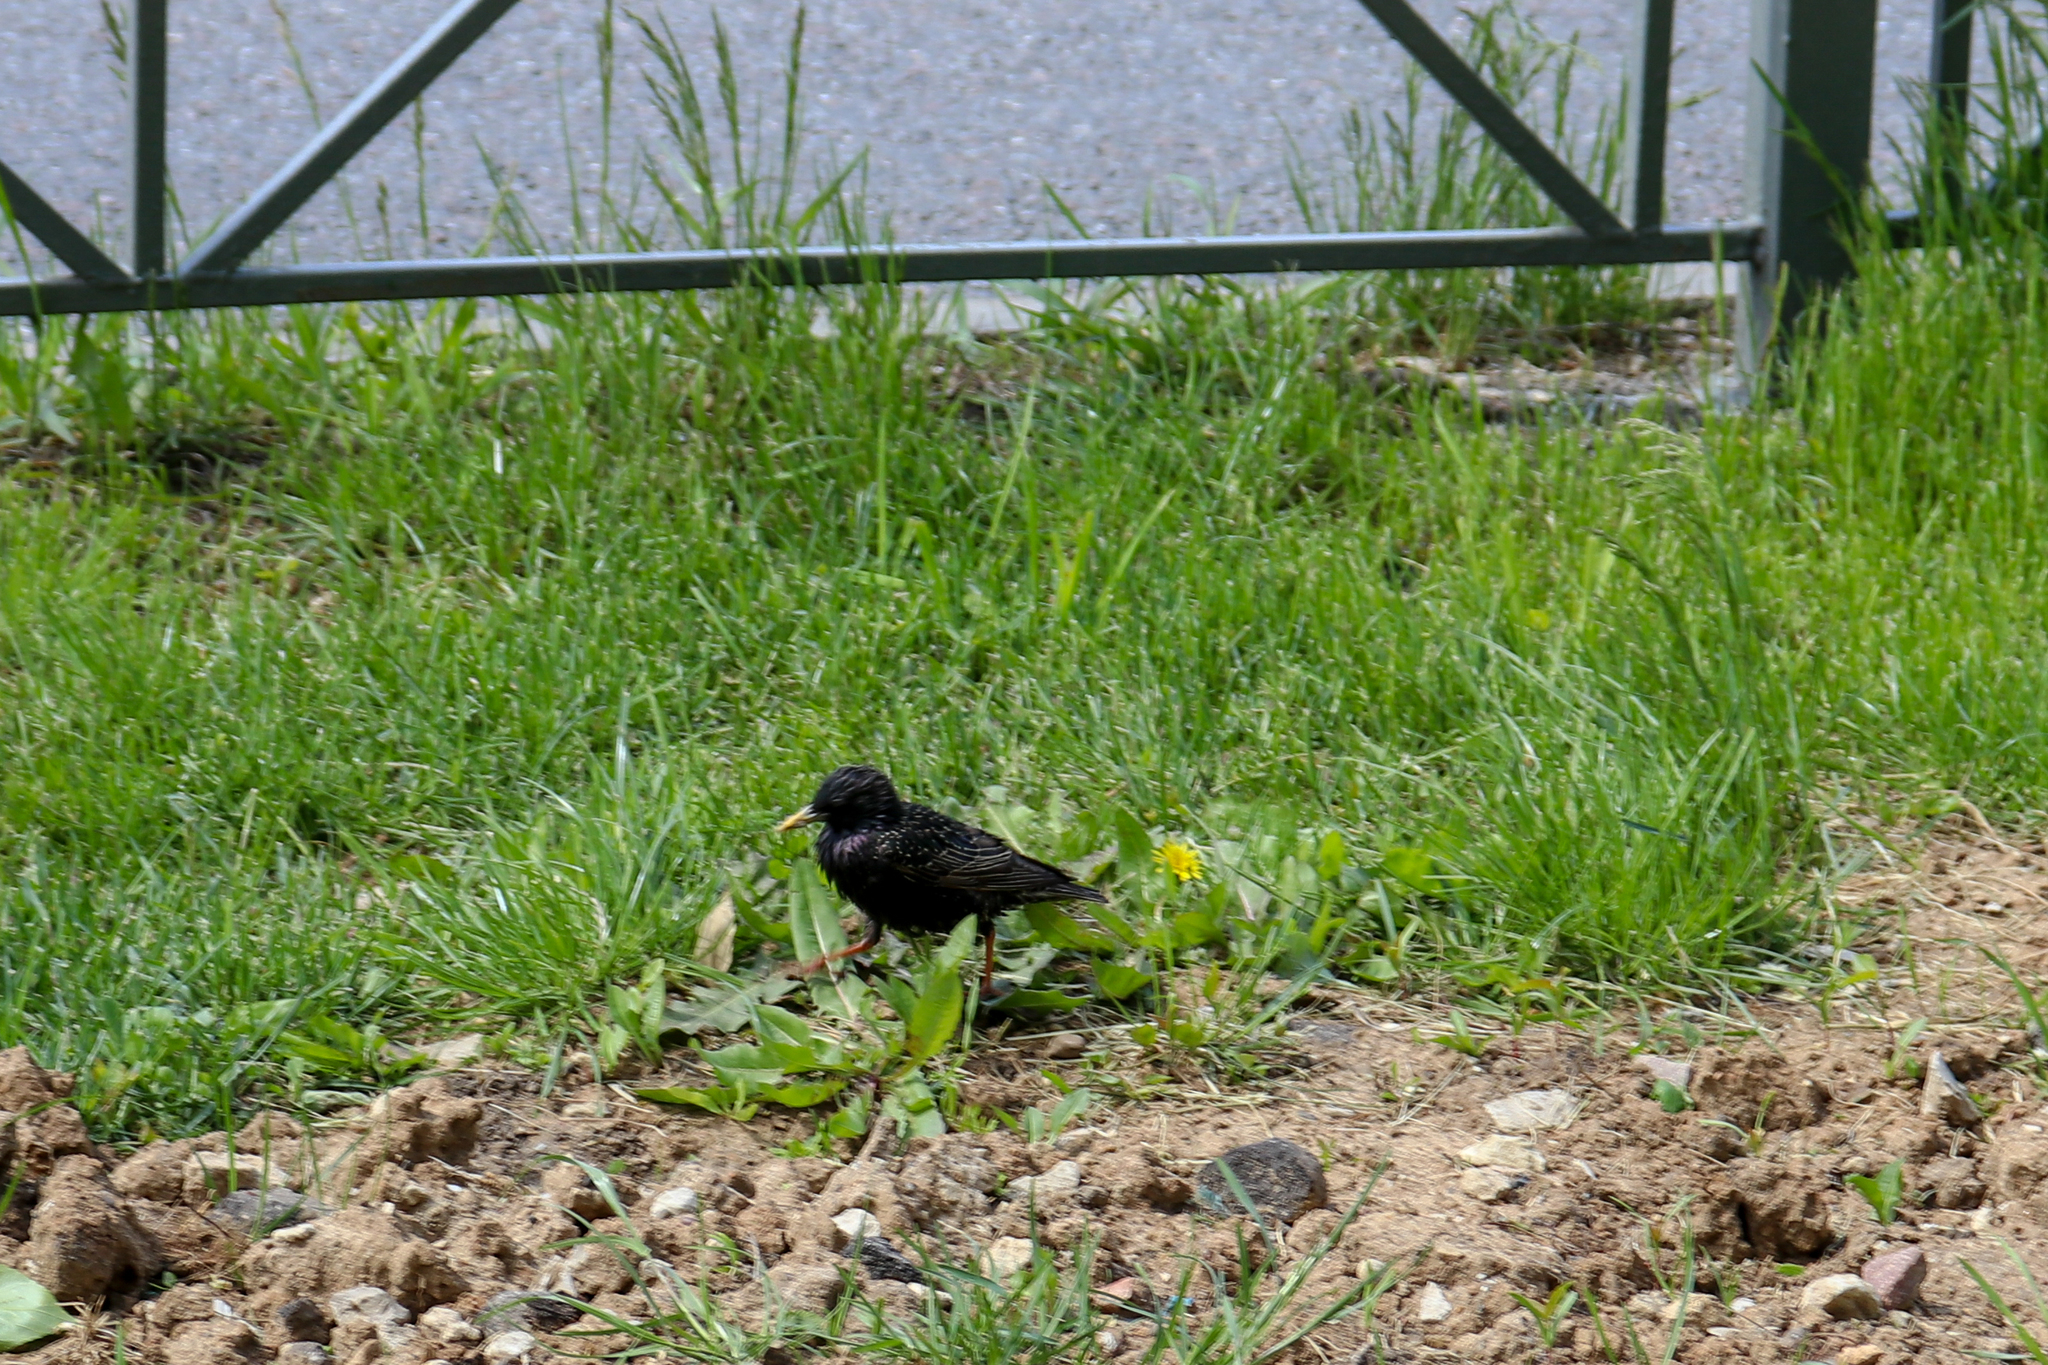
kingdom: Animalia
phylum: Chordata
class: Aves
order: Passeriformes
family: Sturnidae
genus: Sturnus
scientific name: Sturnus vulgaris
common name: Common starling
